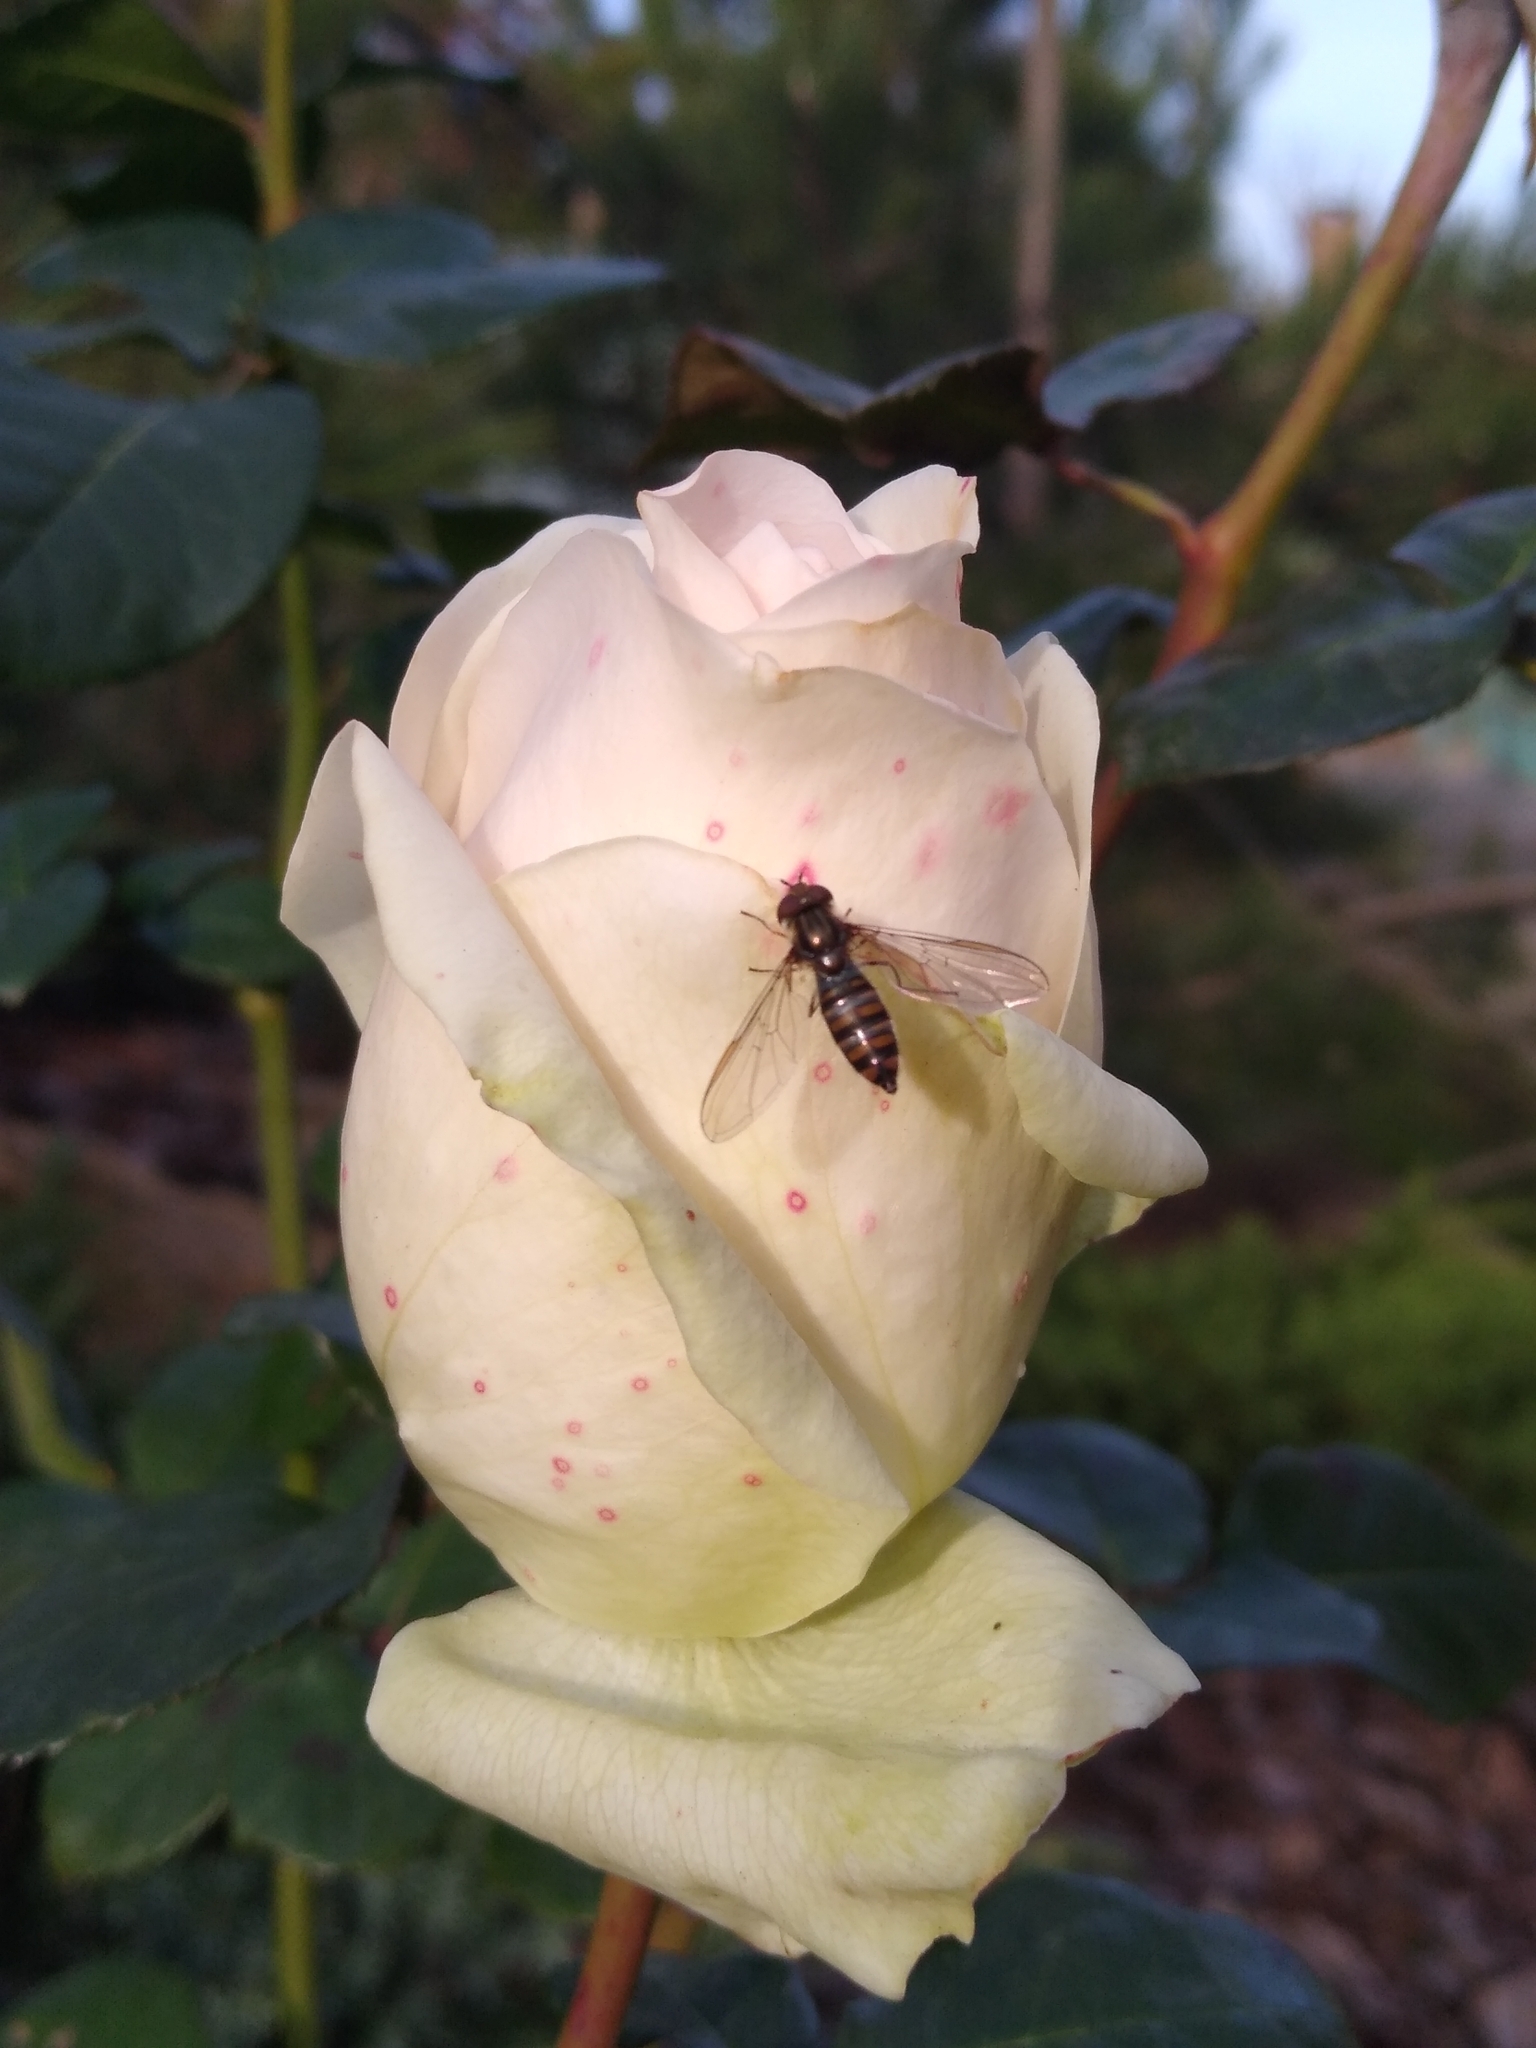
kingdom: Animalia
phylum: Arthropoda
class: Insecta
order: Diptera
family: Syrphidae
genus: Episyrphus
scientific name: Episyrphus balteatus
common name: Marmalade hoverfly
